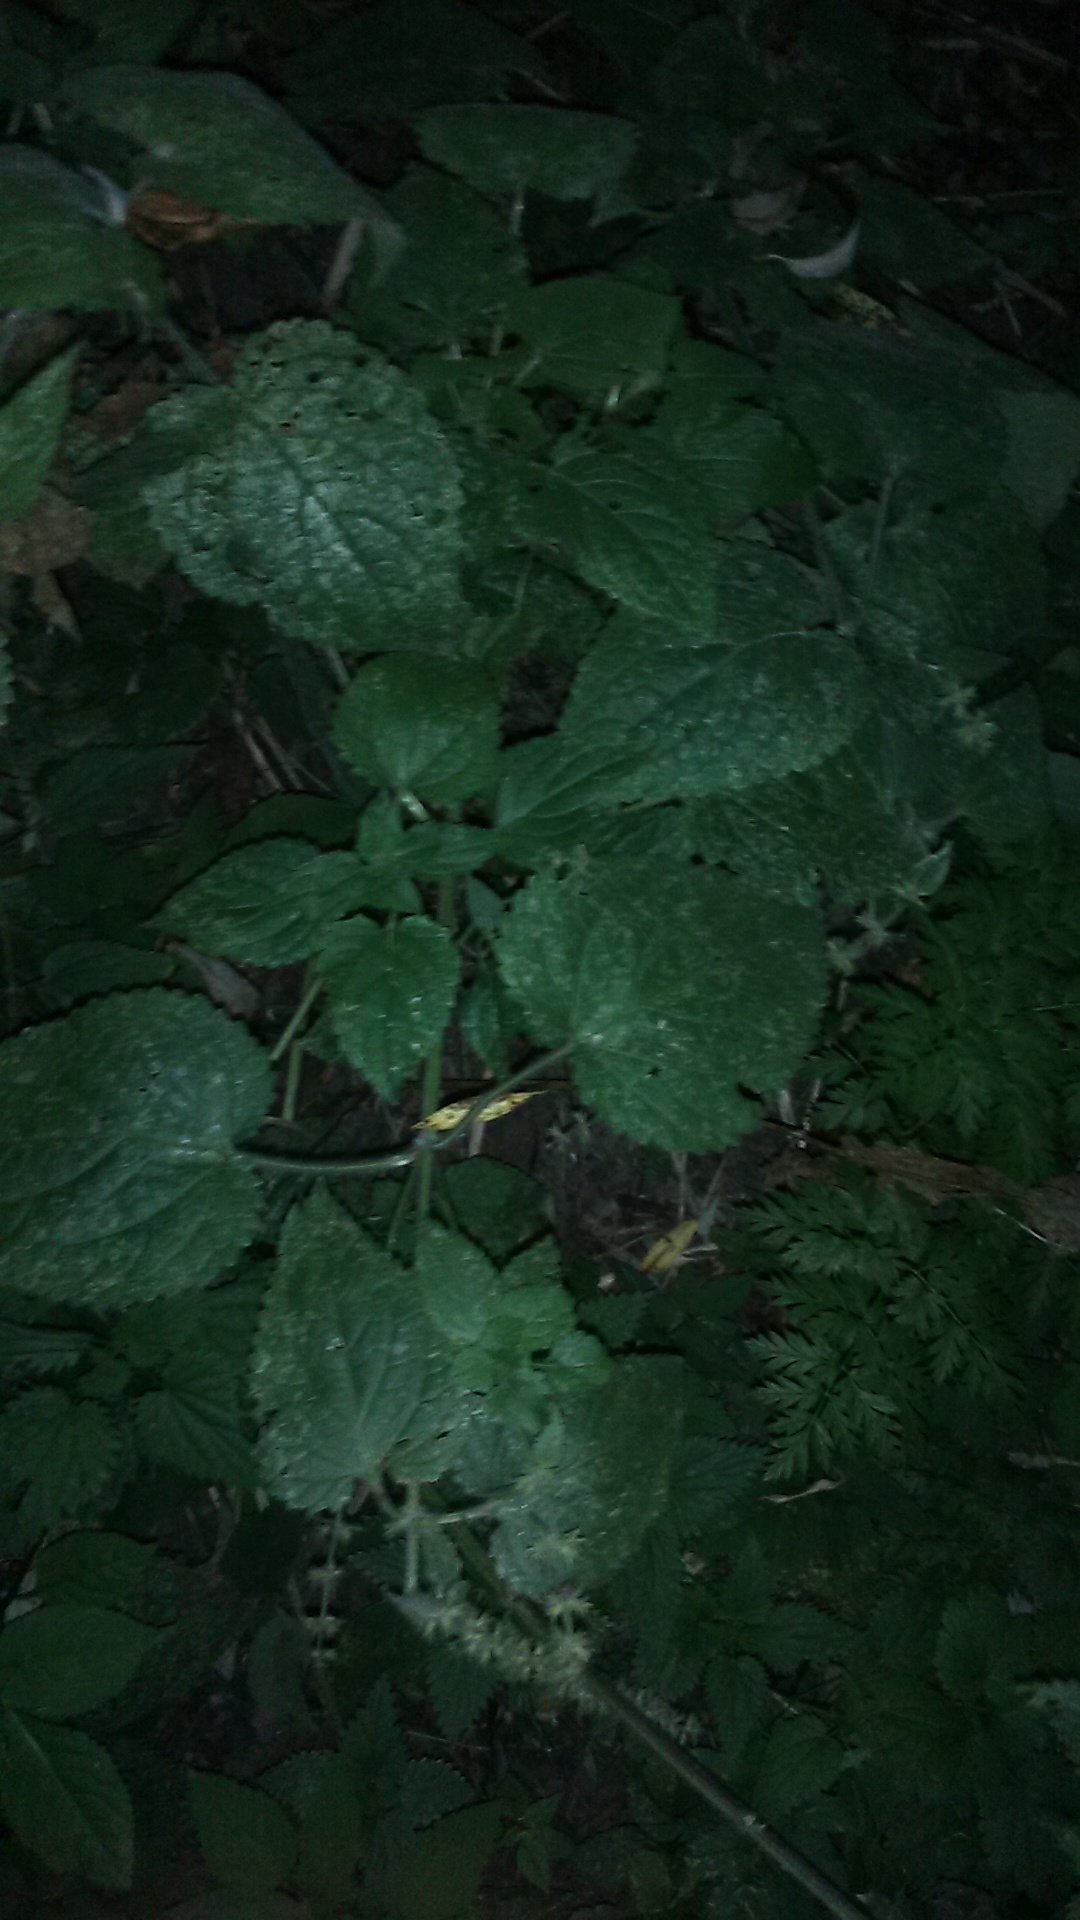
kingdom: Plantae
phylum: Tracheophyta
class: Magnoliopsida
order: Lamiales
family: Lamiaceae
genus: Stachys
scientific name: Stachys sylvatica
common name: Hedge woundwort
